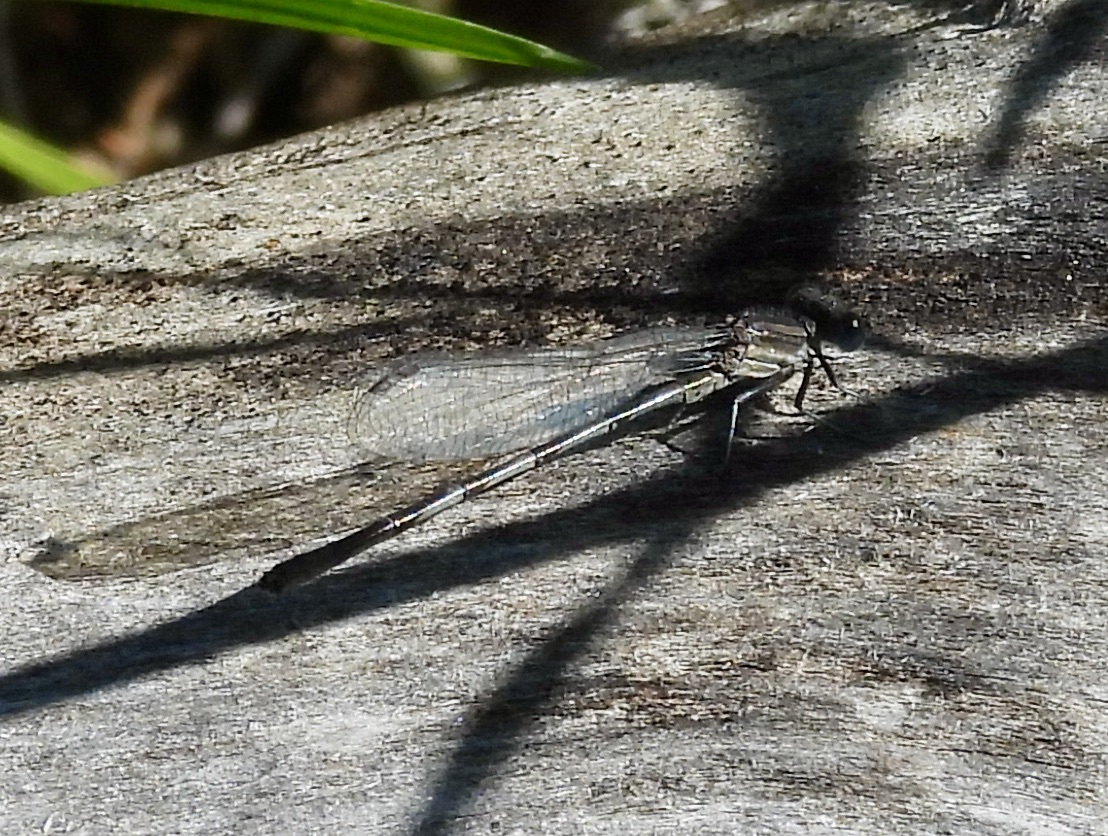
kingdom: Animalia
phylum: Arthropoda
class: Insecta
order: Odonata
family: Coenagrionidae
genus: Argia
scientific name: Argia leonorae
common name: Leonora's dancer
